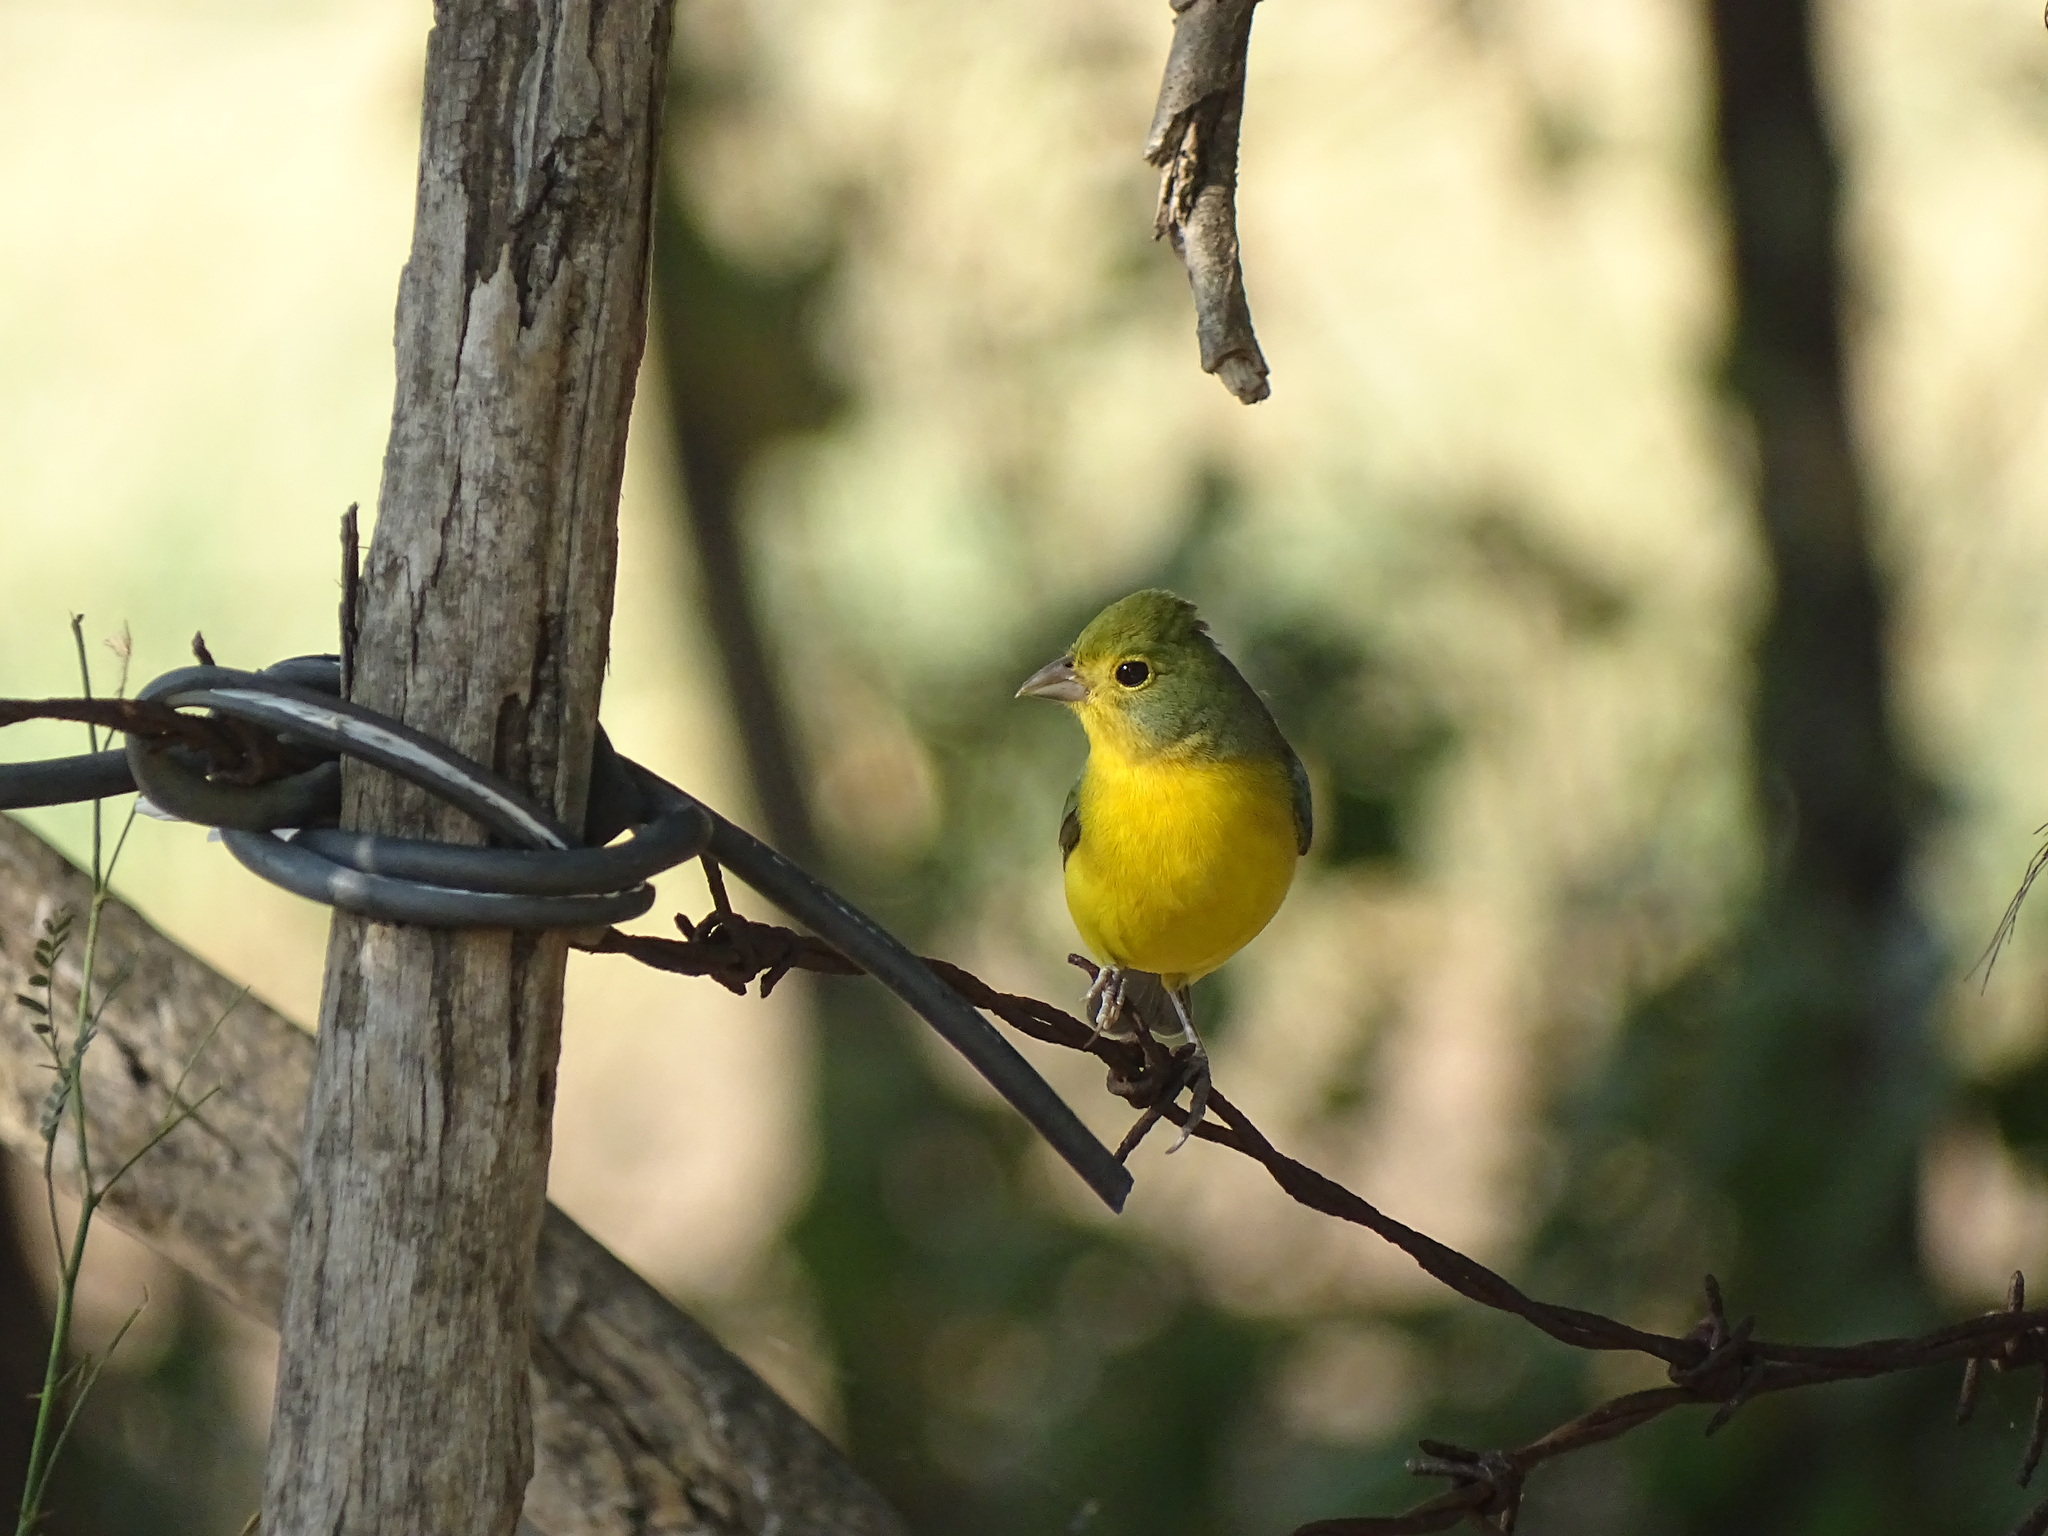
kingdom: Animalia
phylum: Chordata
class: Aves
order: Passeriformes
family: Cardinalidae
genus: Passerina
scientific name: Passerina leclancherii
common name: Orange-breasted bunting
